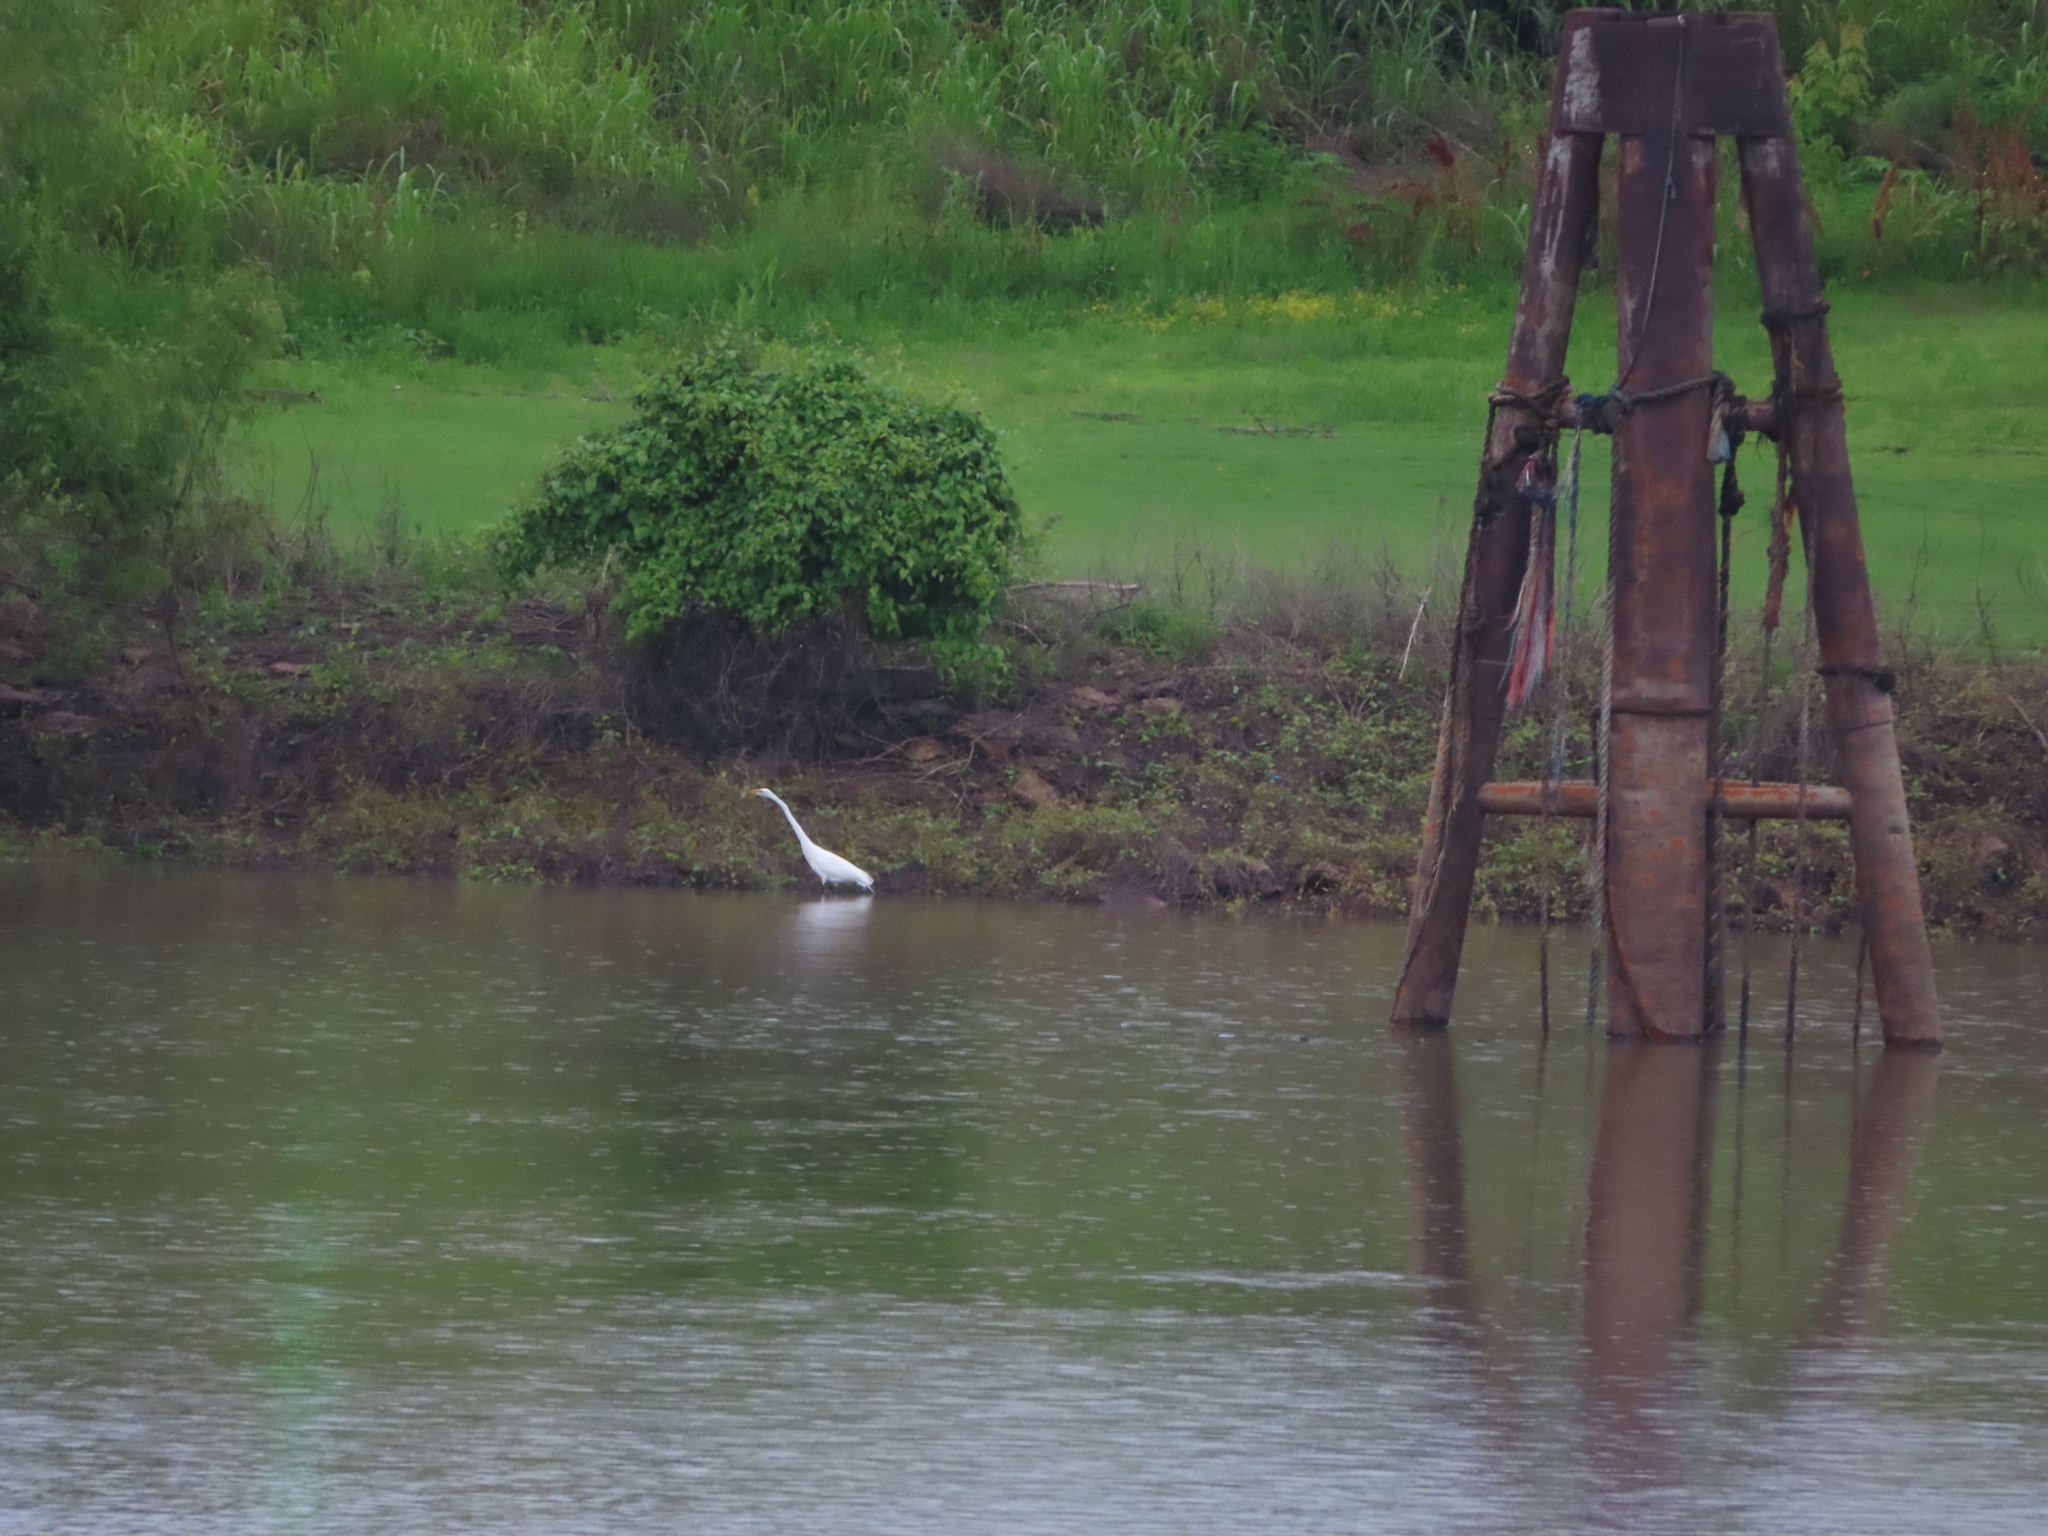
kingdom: Animalia
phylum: Chordata
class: Aves
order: Pelecaniformes
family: Ardeidae
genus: Ardea
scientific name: Ardea alba
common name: Great egret
